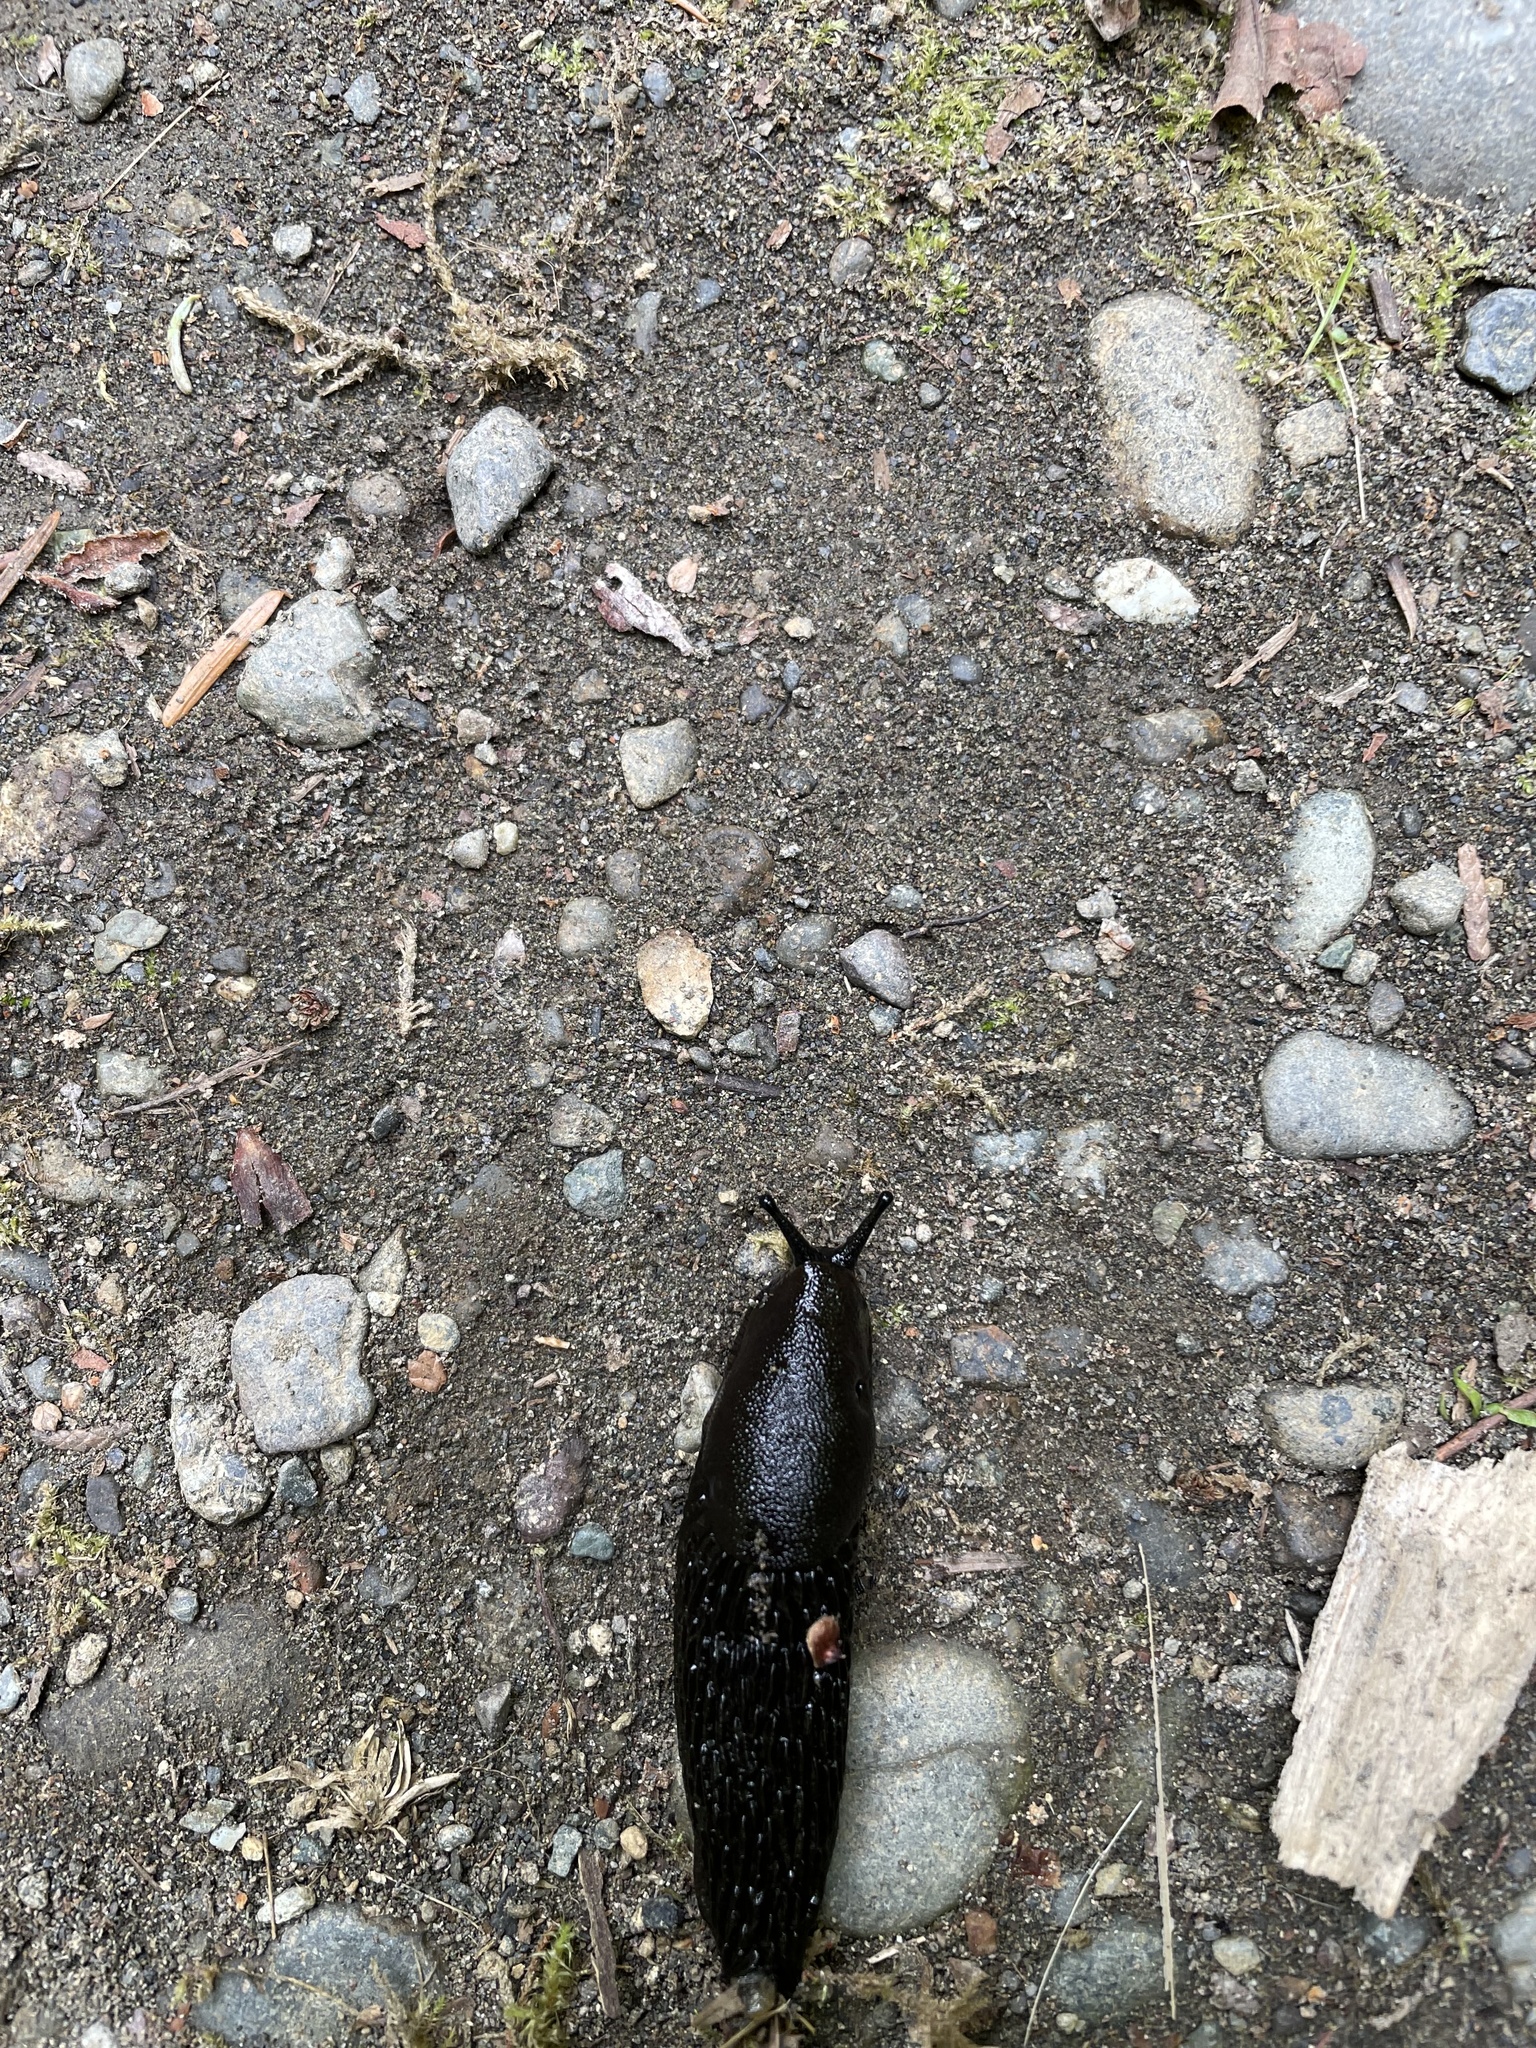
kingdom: Animalia
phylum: Mollusca
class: Gastropoda
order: Stylommatophora
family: Arionidae
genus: Arion
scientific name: Arion
